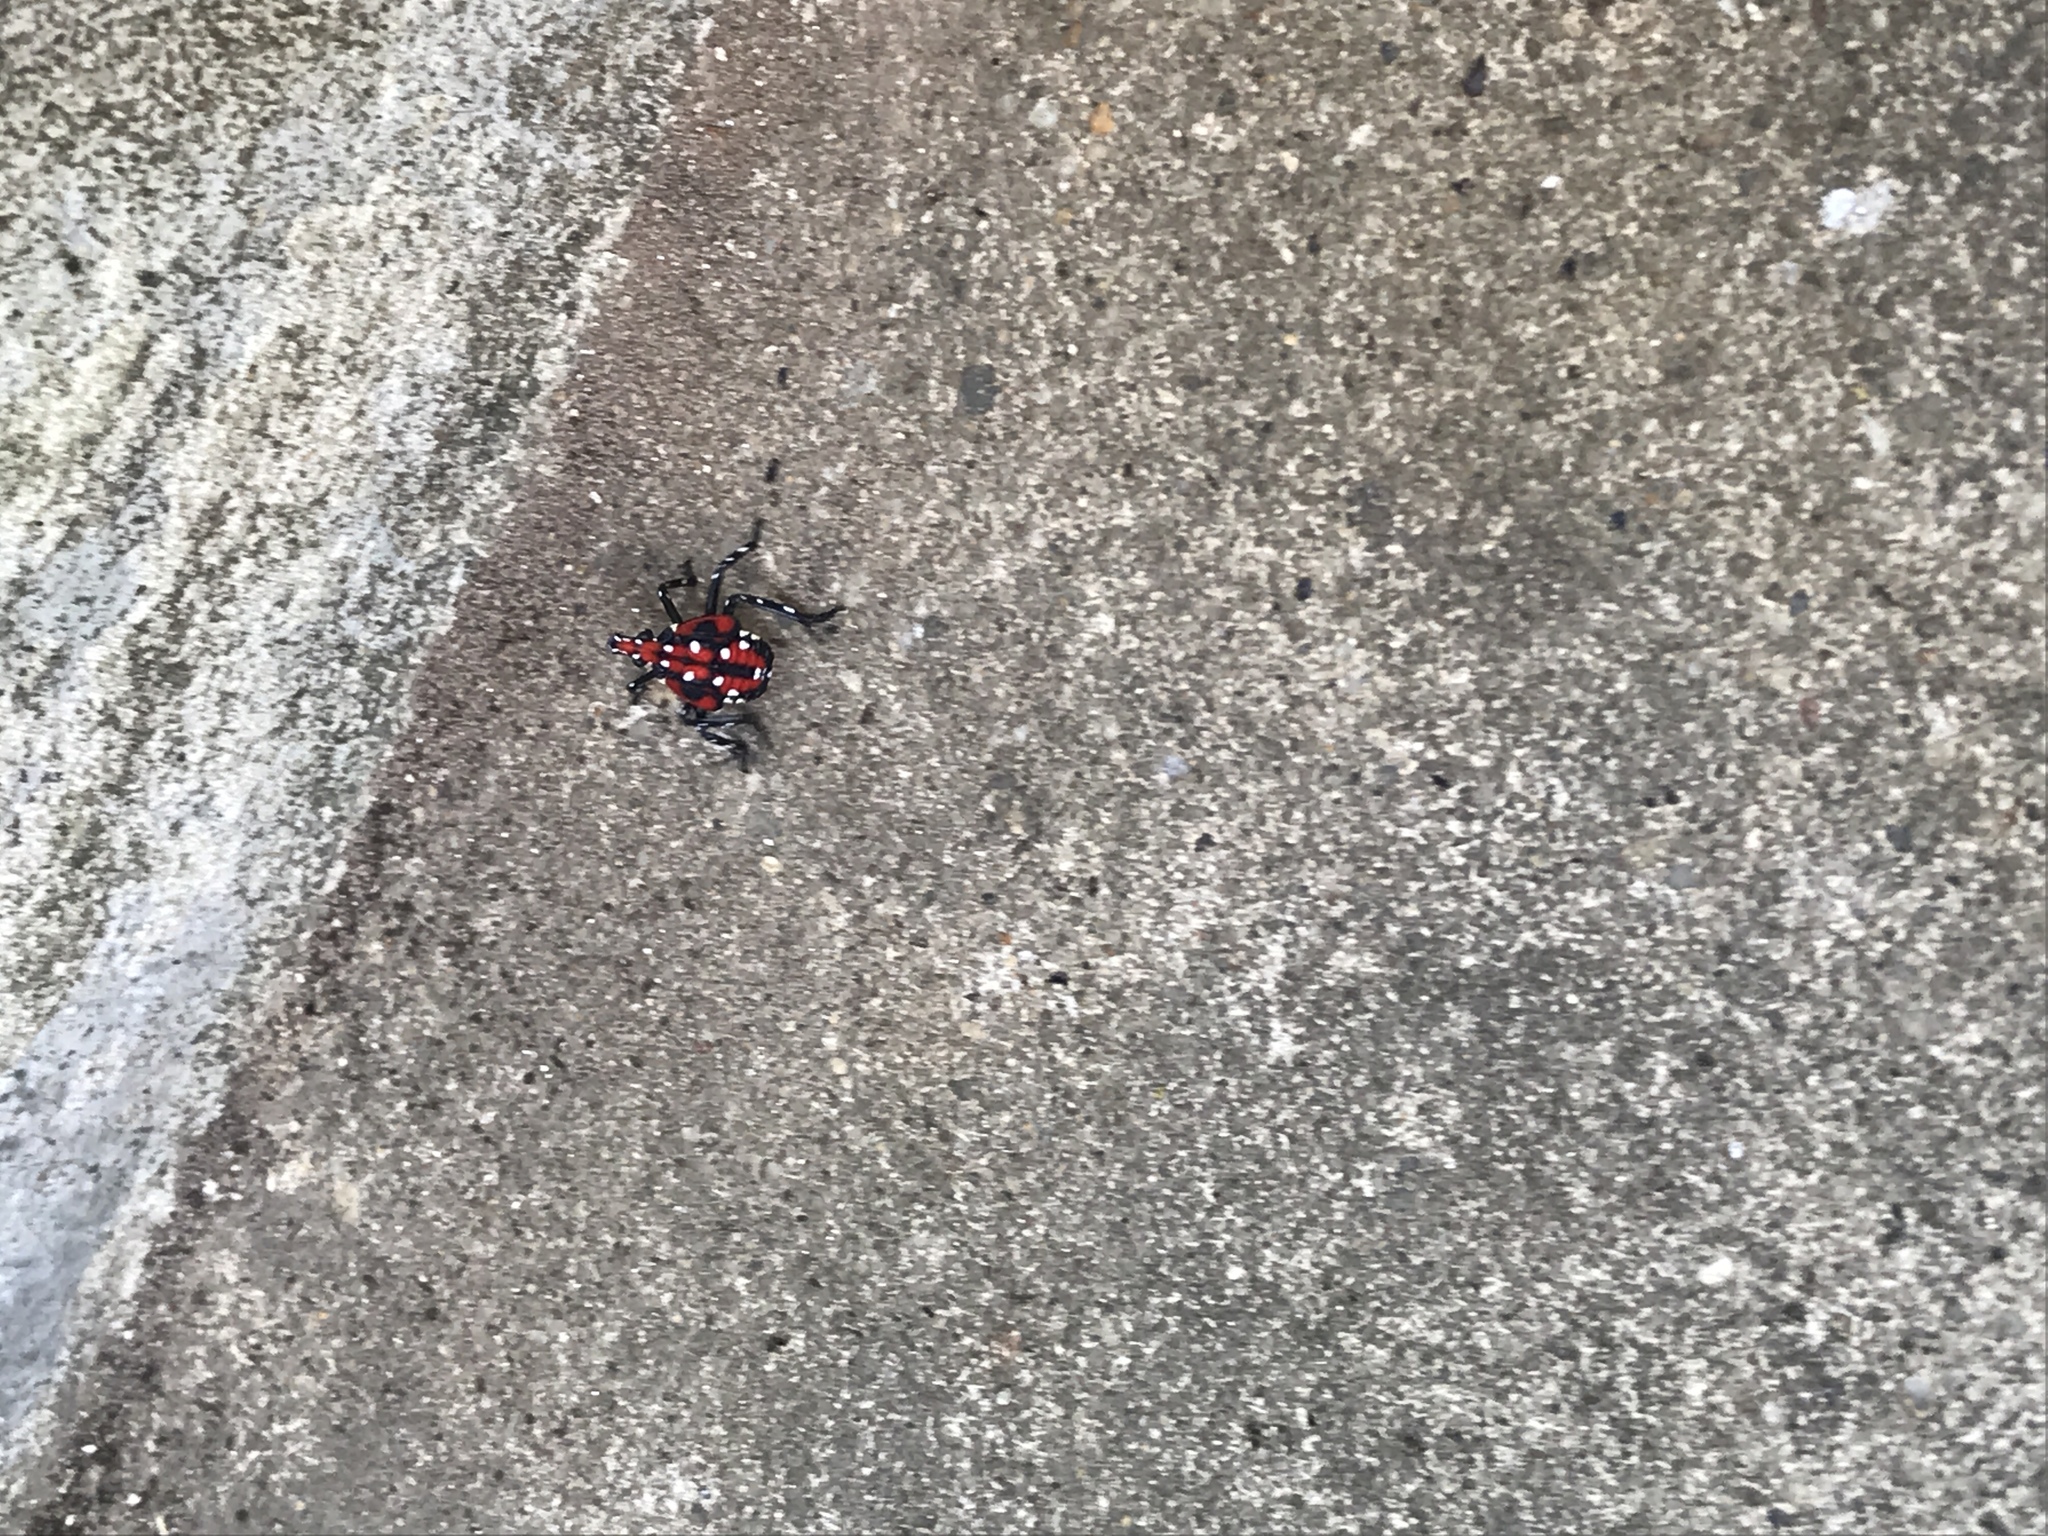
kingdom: Animalia
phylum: Arthropoda
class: Insecta
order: Hemiptera
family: Fulgoridae
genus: Lycorma
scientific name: Lycorma delicatula
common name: Spotted lanternfly
